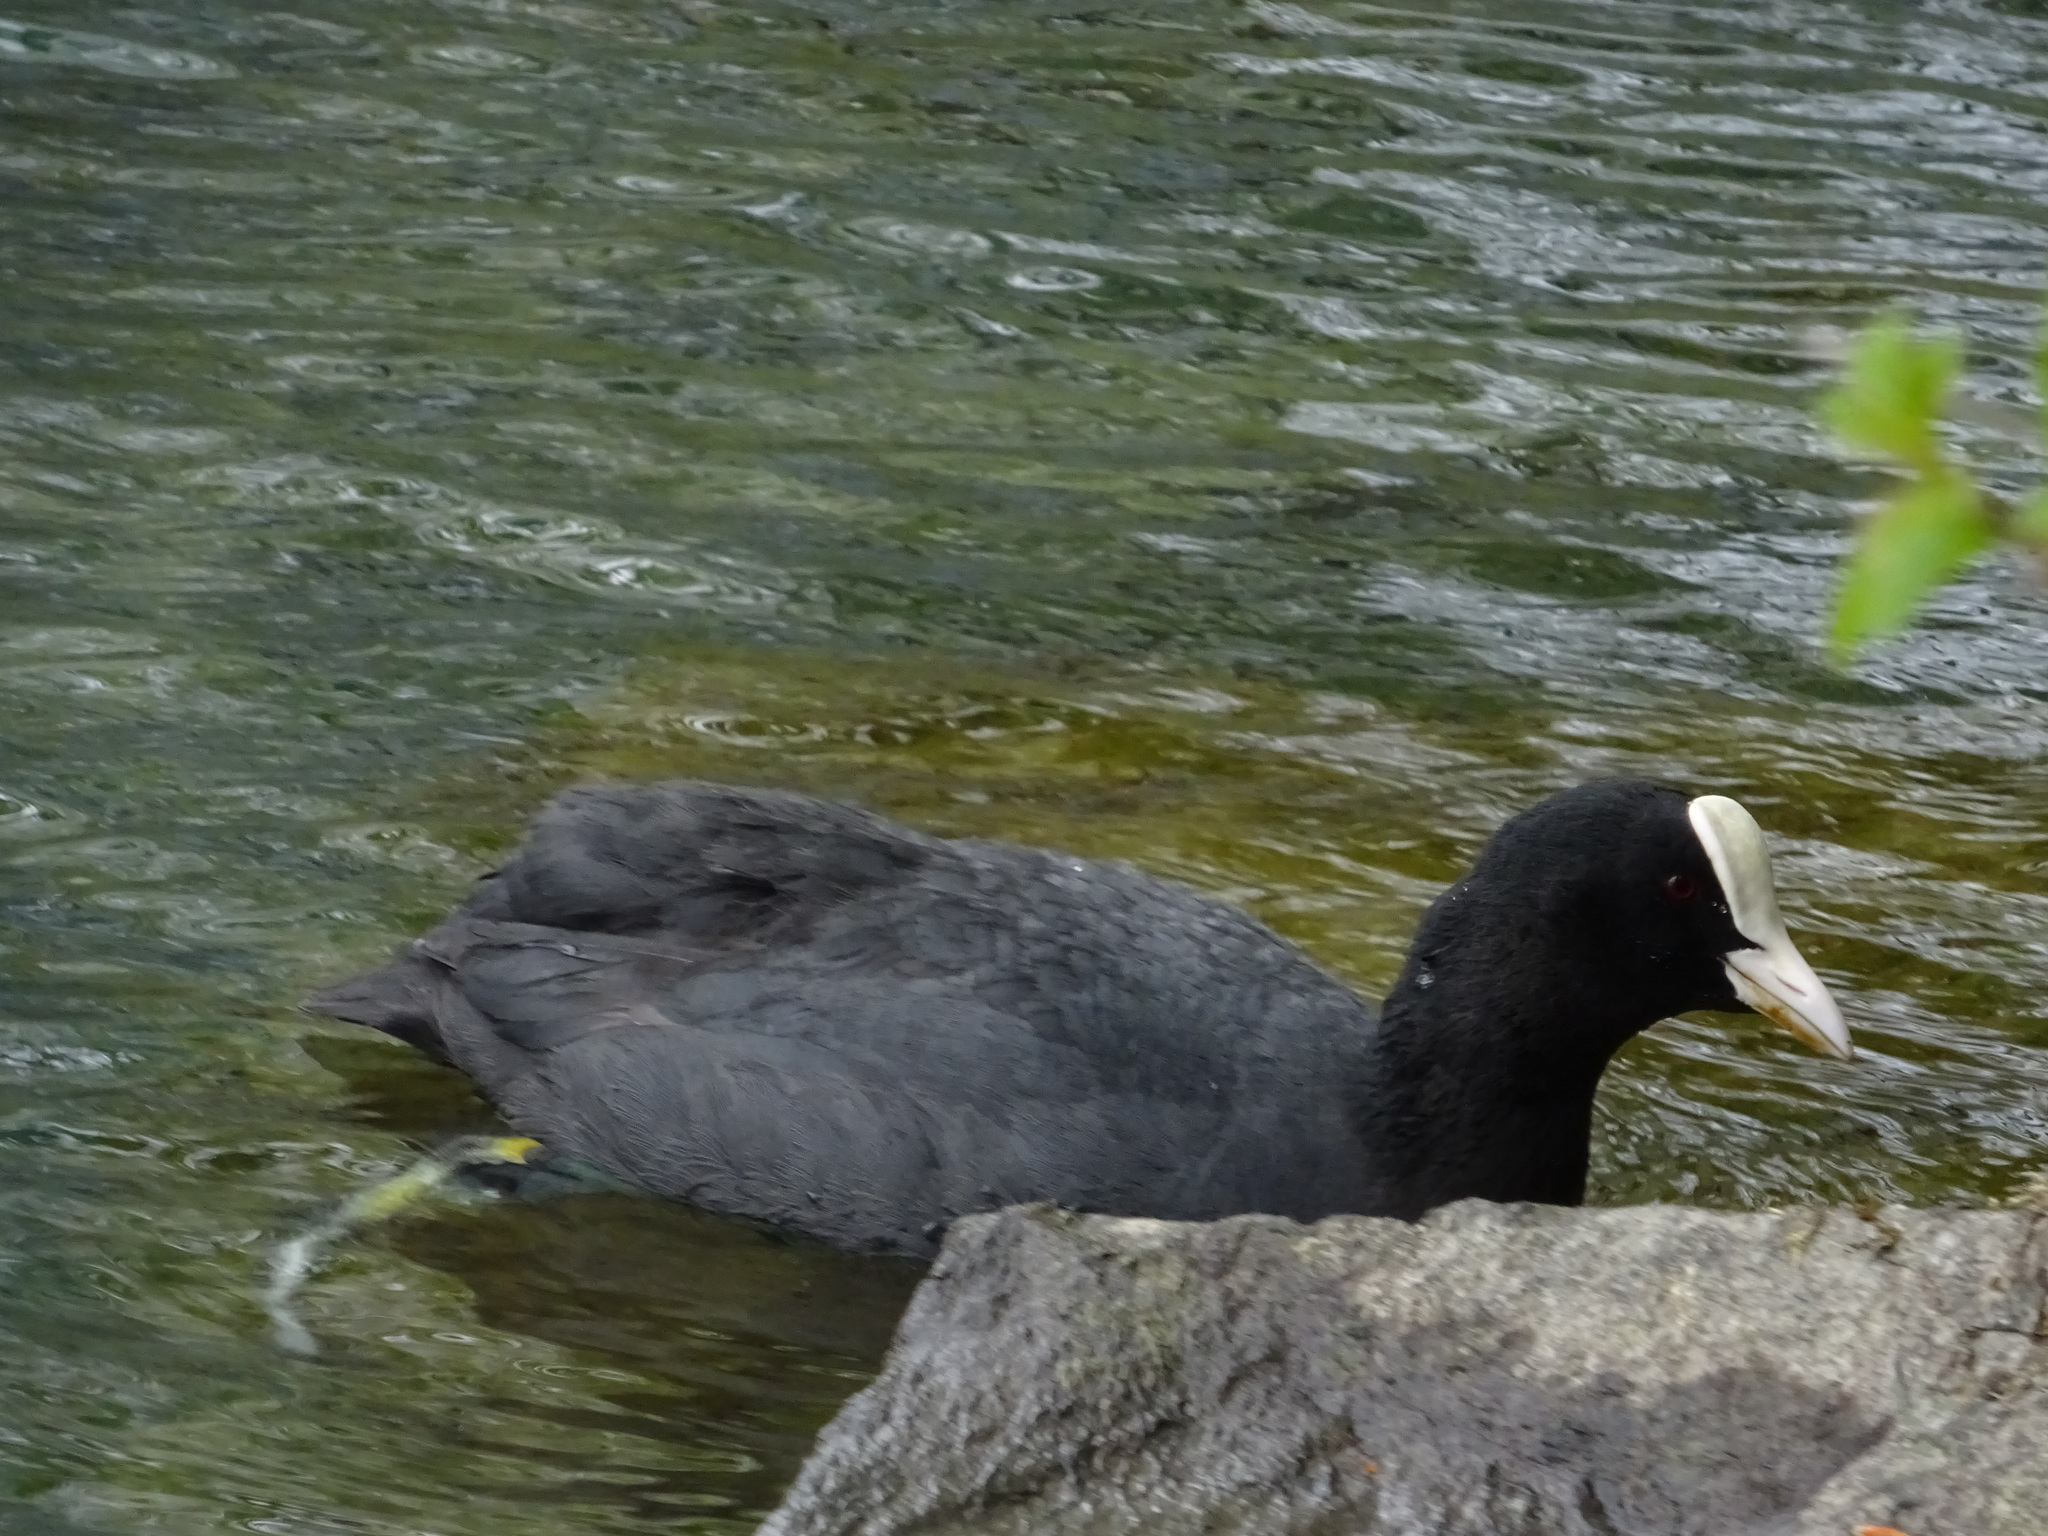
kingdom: Animalia
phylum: Chordata
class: Aves
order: Gruiformes
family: Rallidae
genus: Fulica
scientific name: Fulica atra
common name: Eurasian coot
